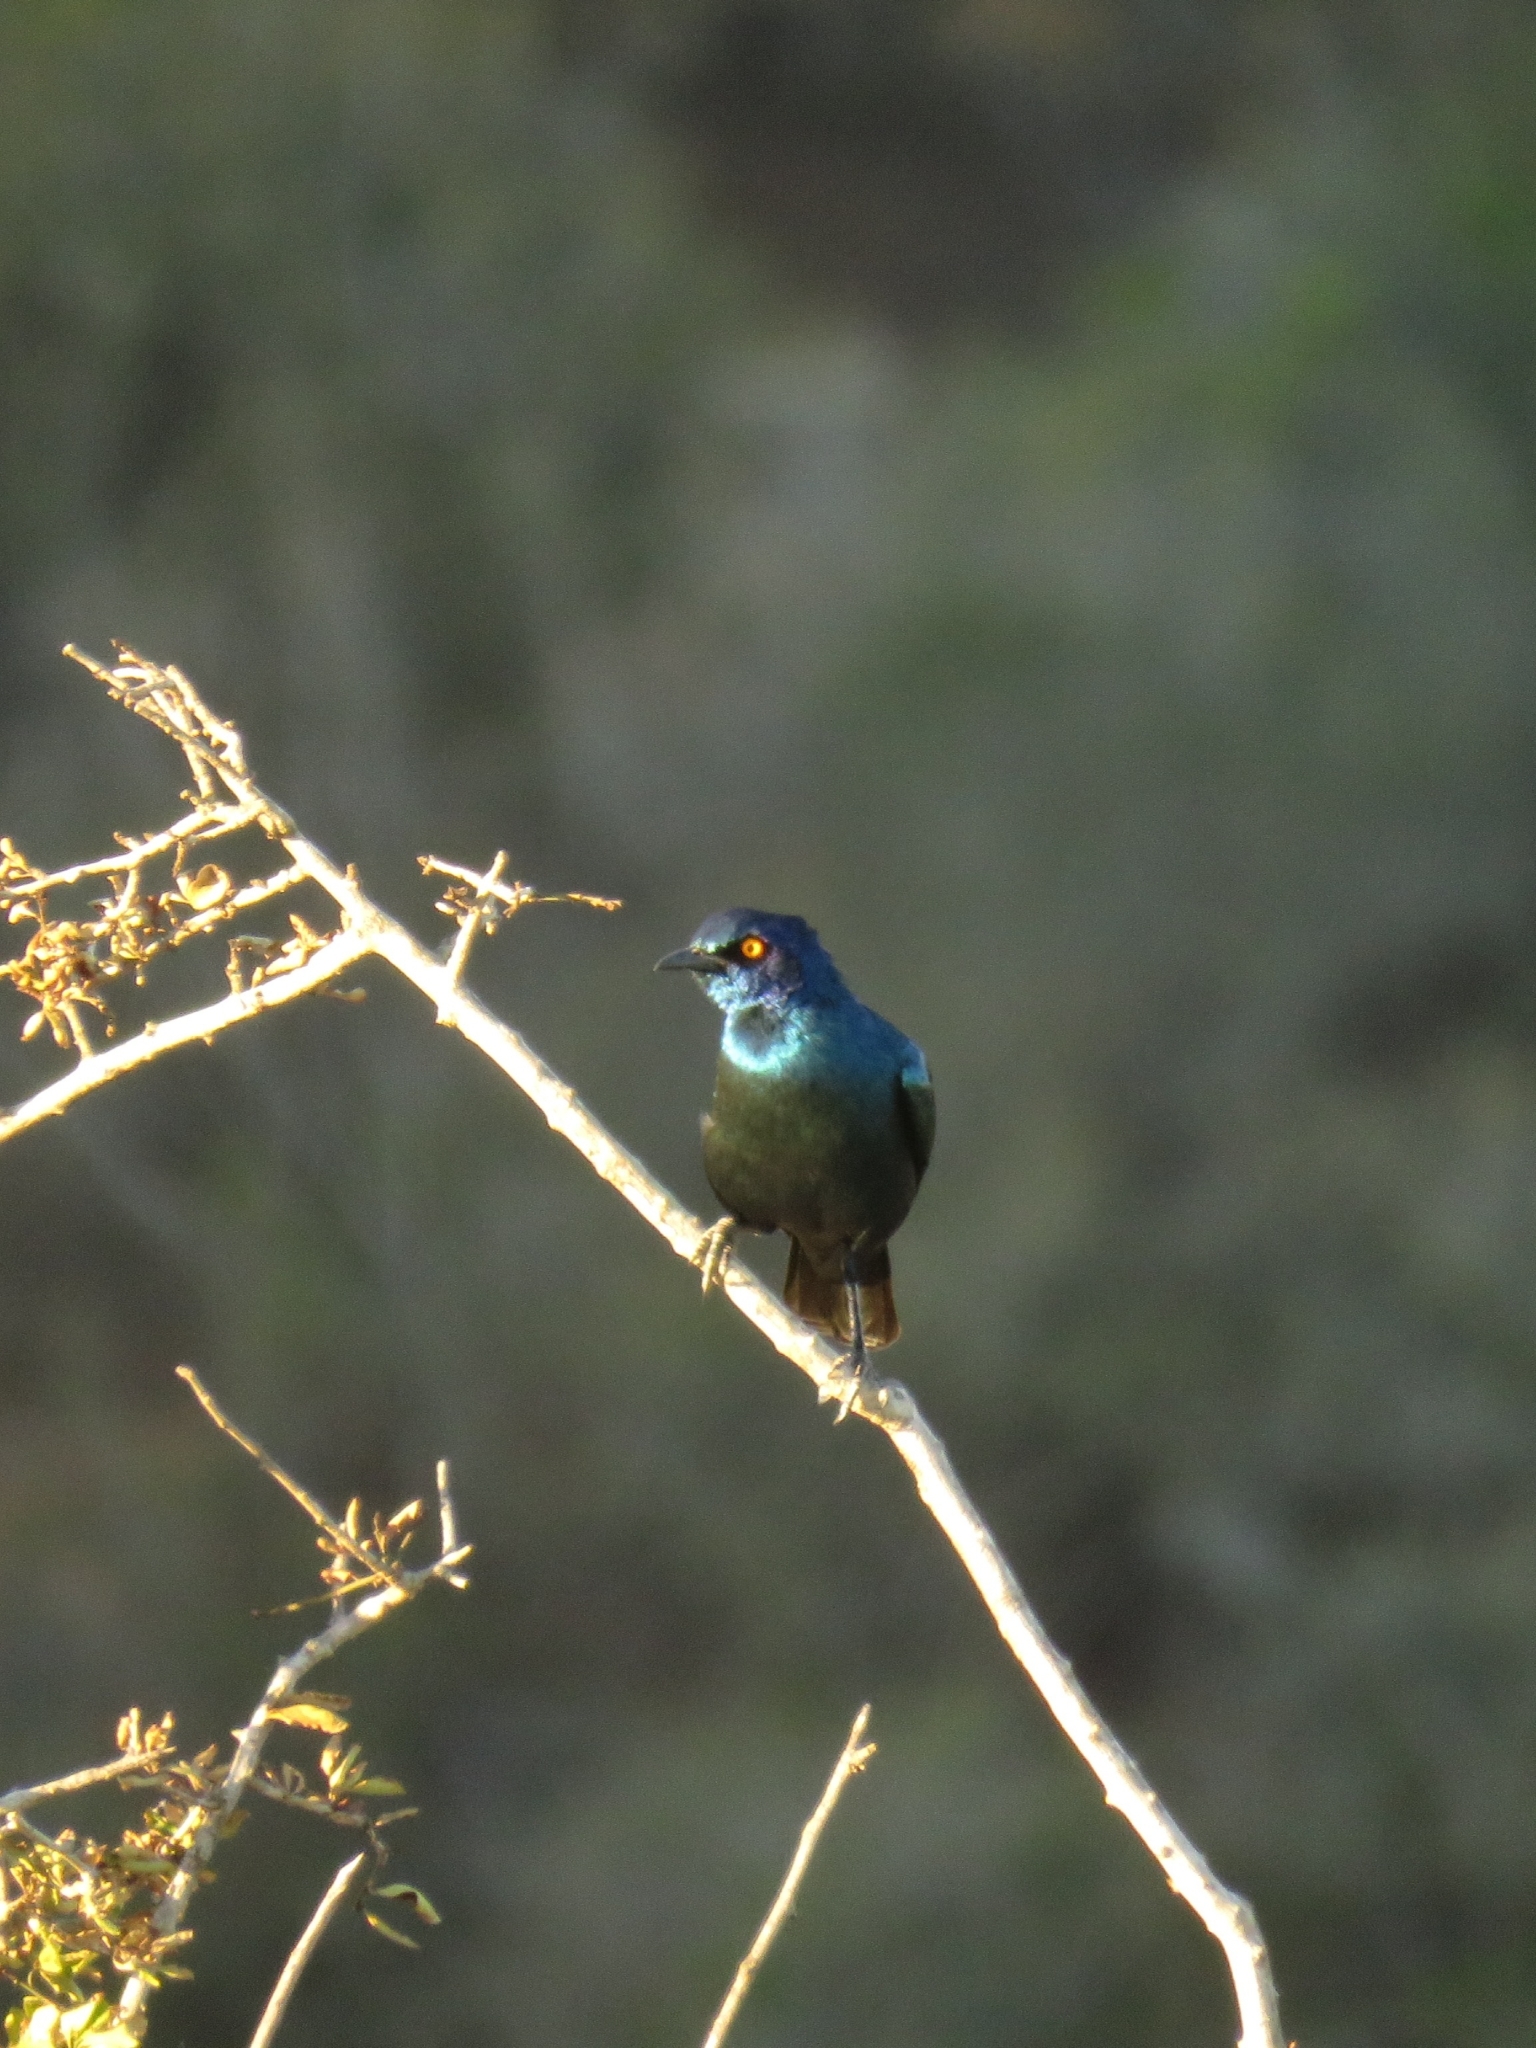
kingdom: Animalia
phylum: Chordata
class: Aves
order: Passeriformes
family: Sturnidae
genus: Lamprotornis
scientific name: Lamprotornis nitens
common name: Cape starling
